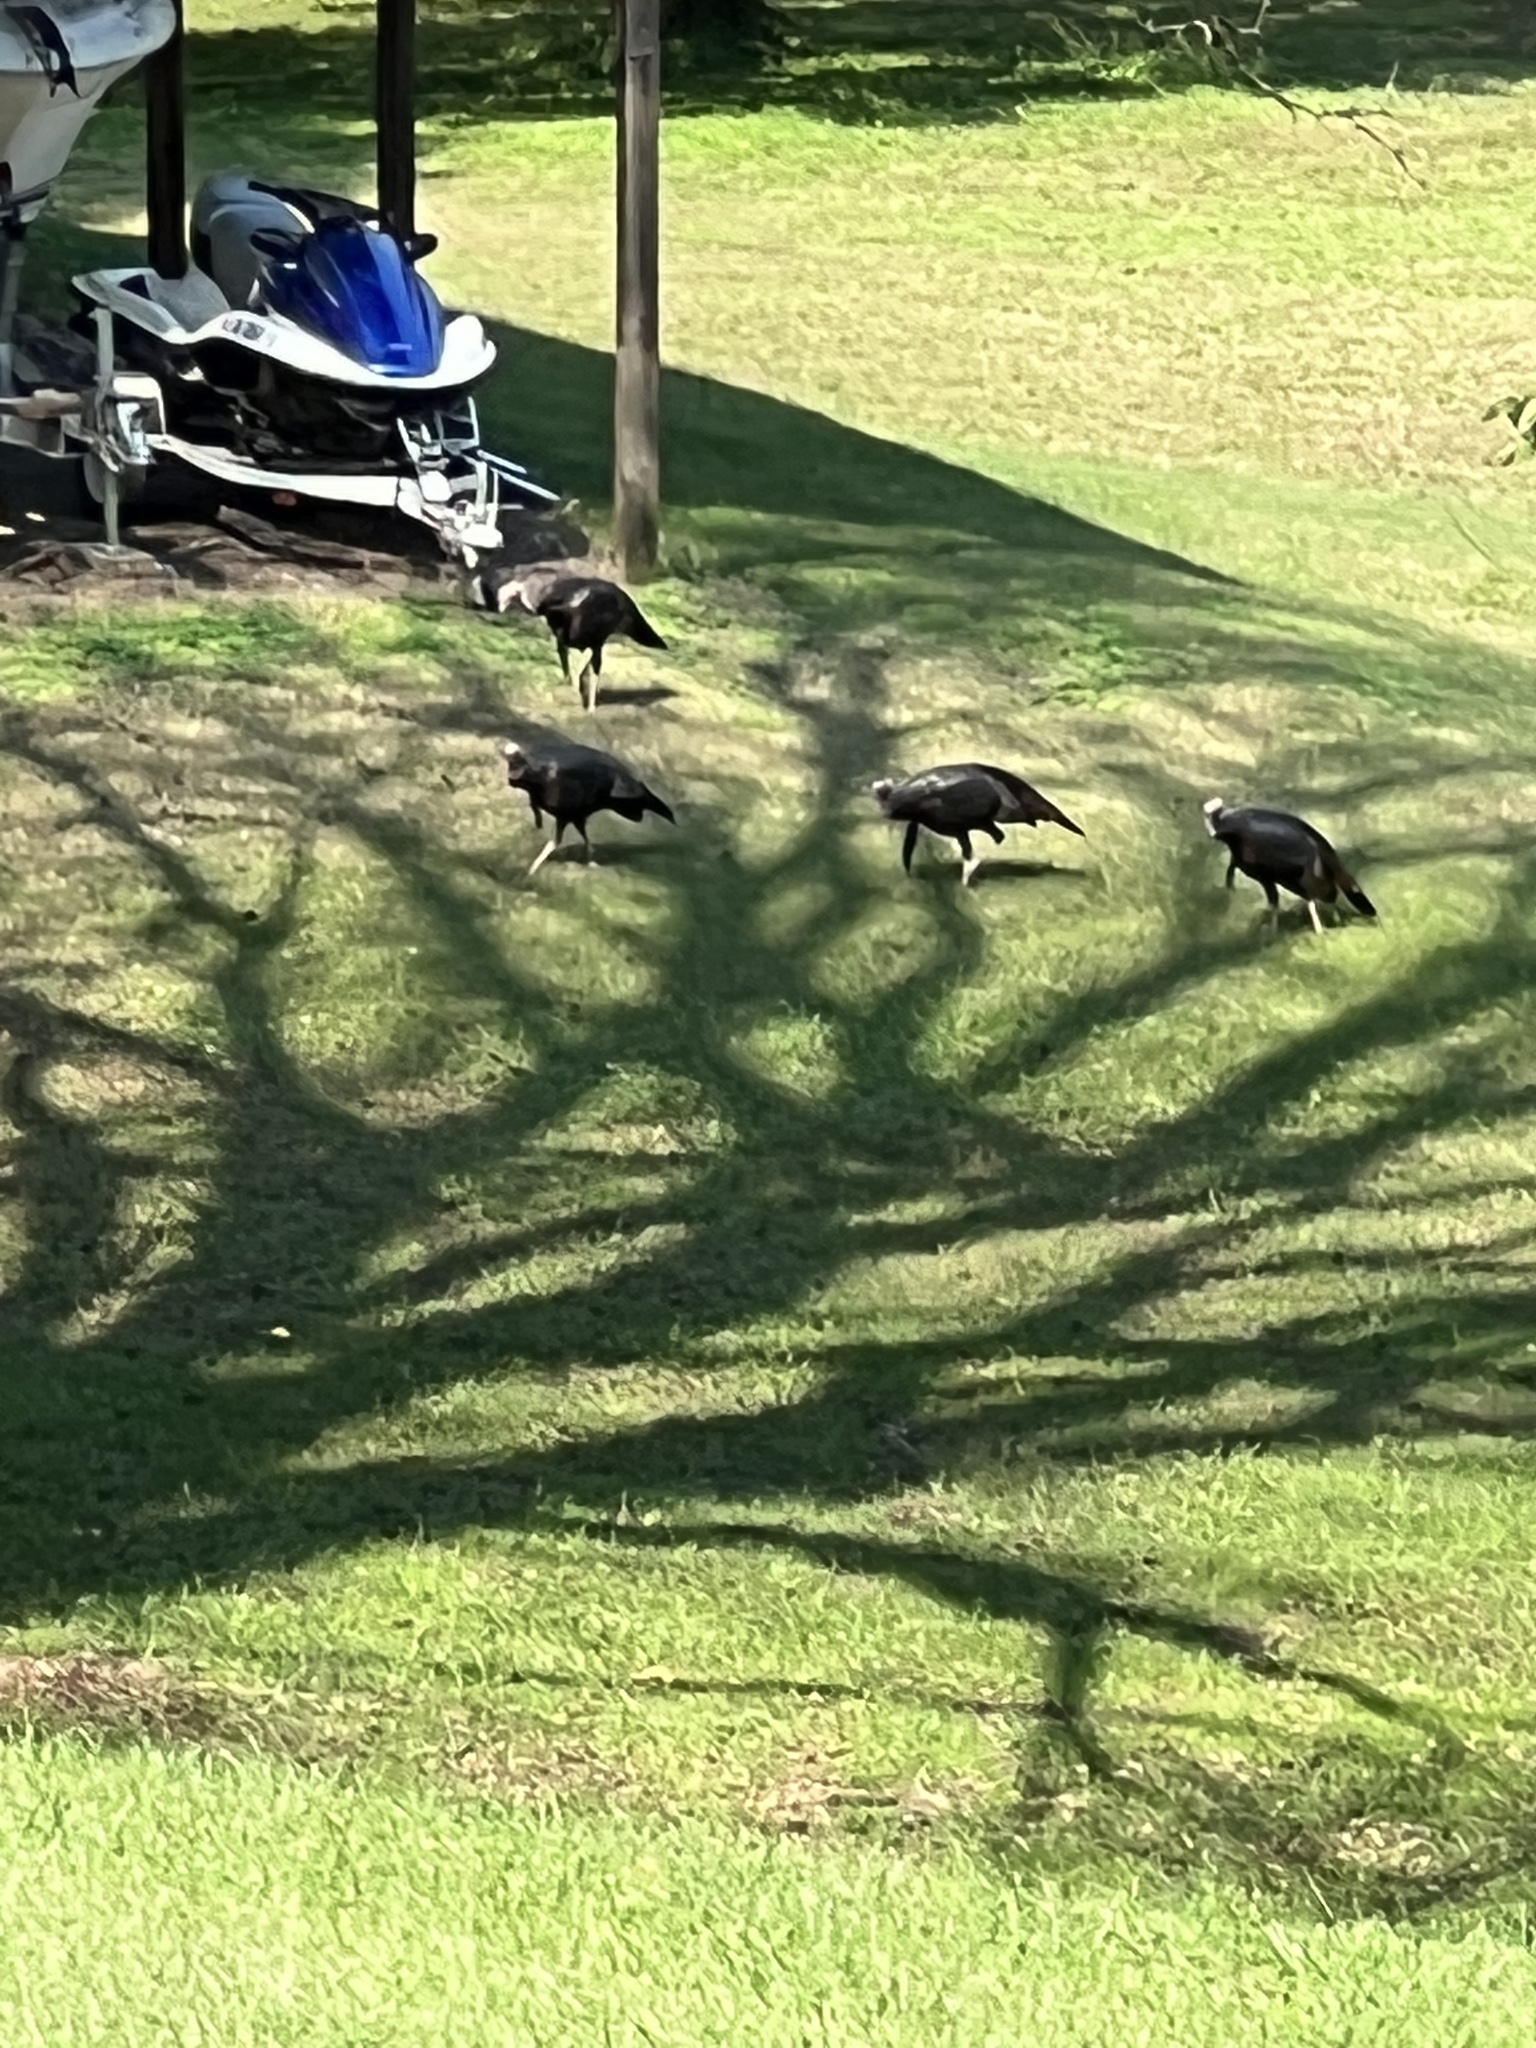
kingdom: Animalia
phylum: Chordata
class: Aves
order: Galliformes
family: Phasianidae
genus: Meleagris
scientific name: Meleagris gallopavo
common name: Wild turkey
